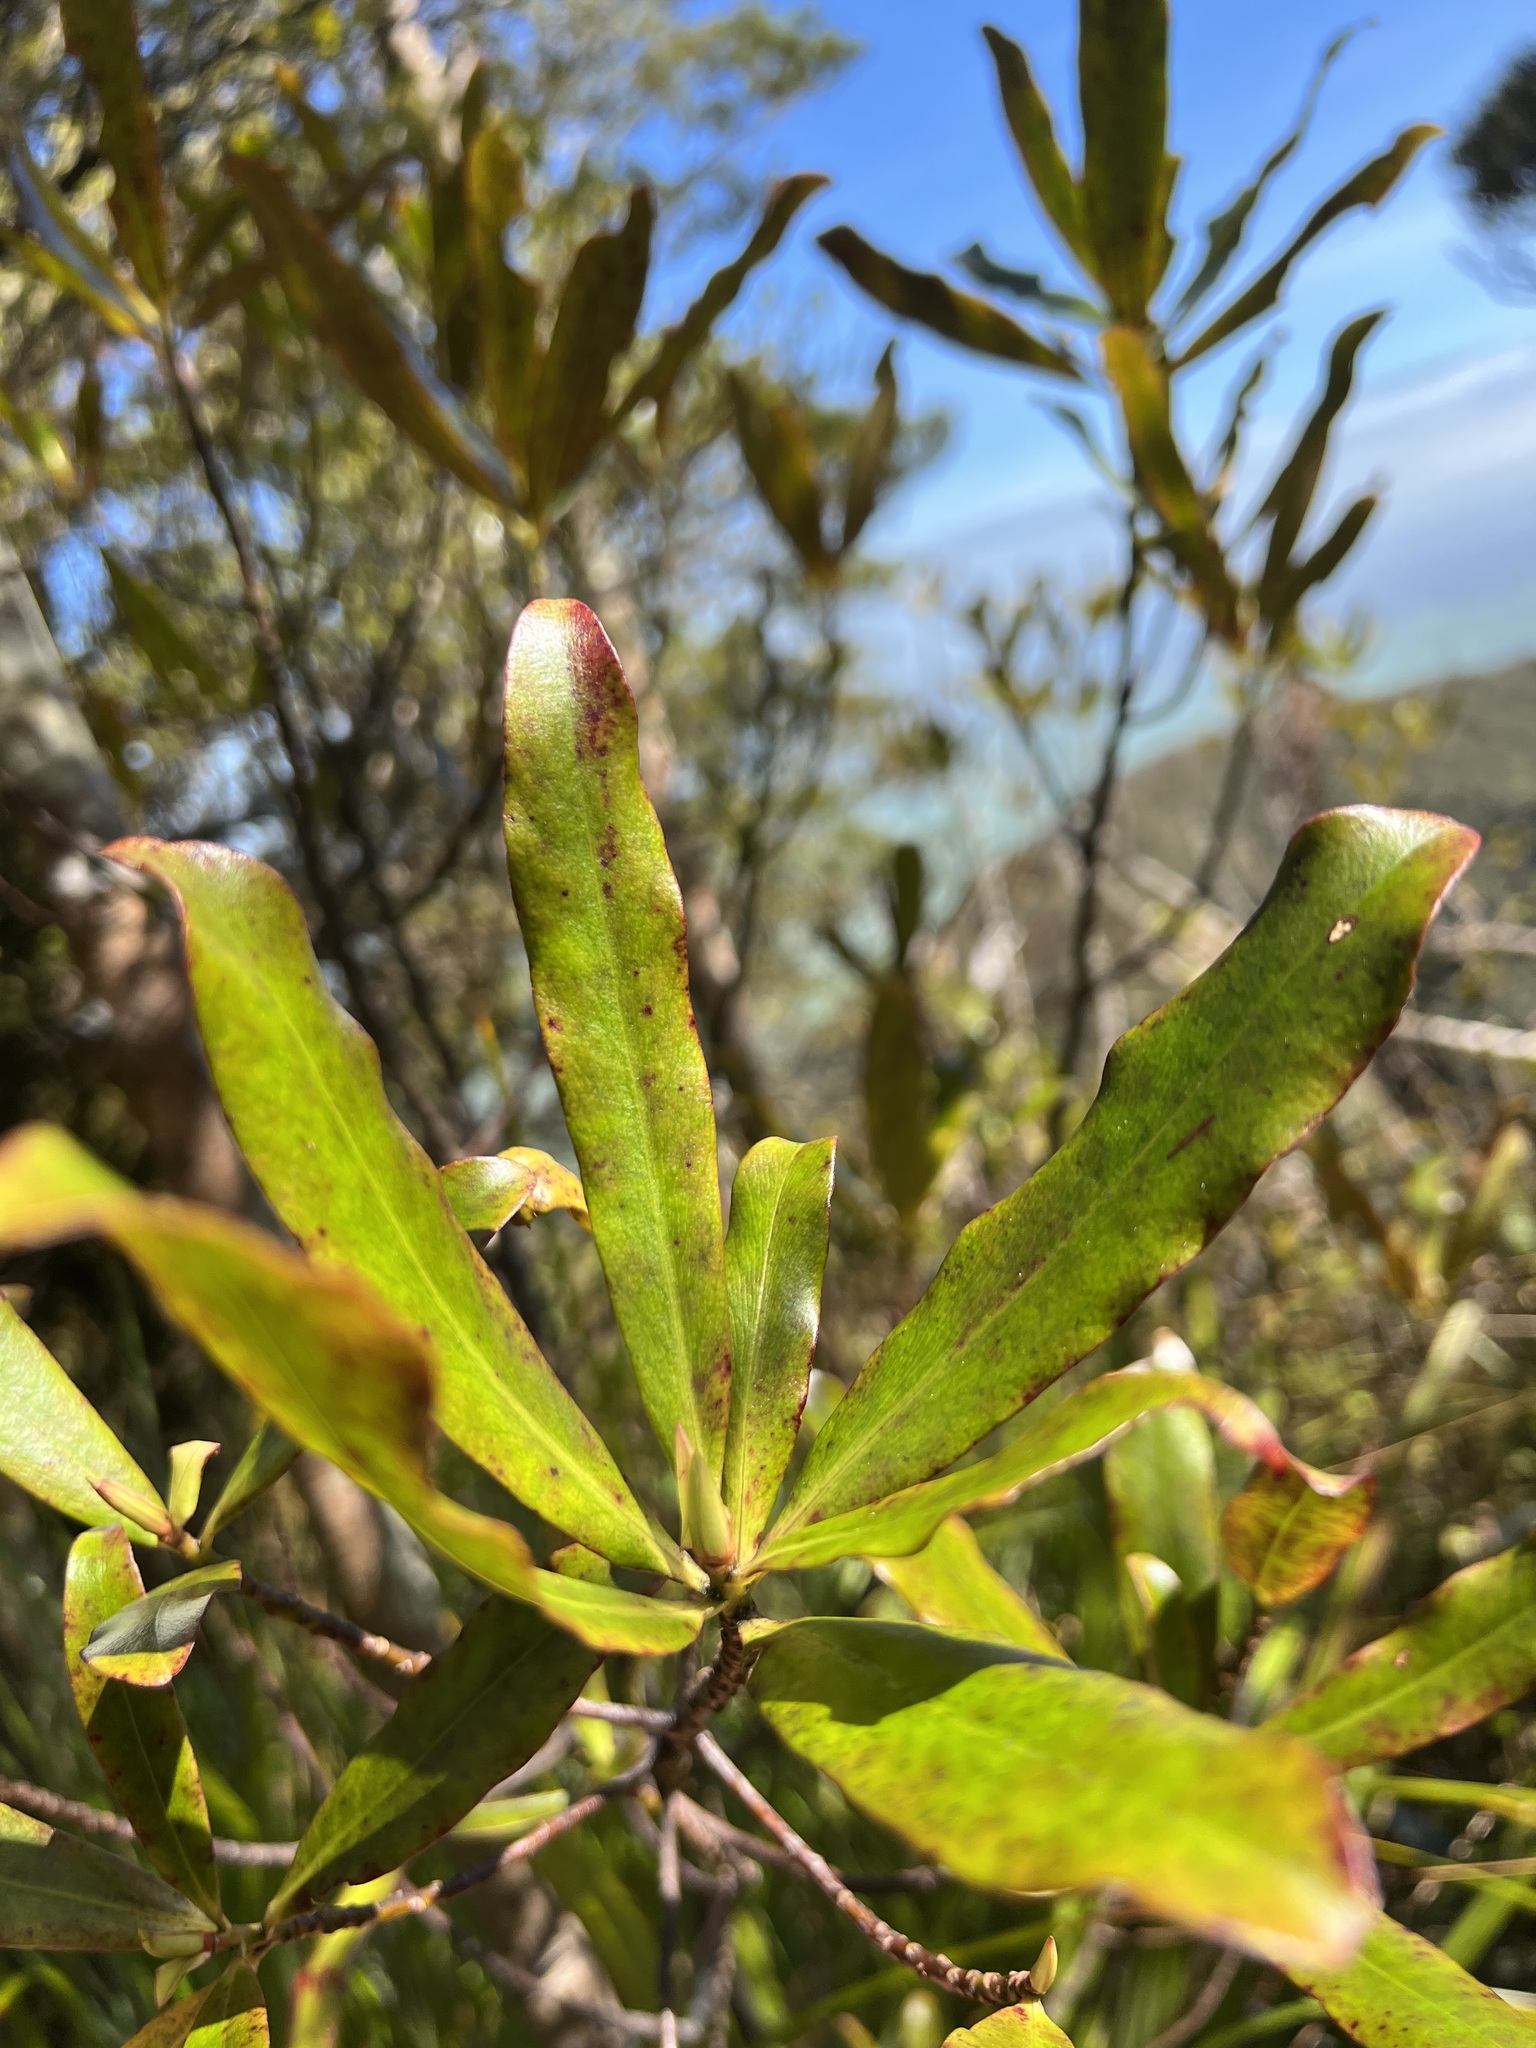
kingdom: Plantae
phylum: Tracheophyta
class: Magnoliopsida
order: Ericales
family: Primulaceae
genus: Myrsine
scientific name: Myrsine salicina
